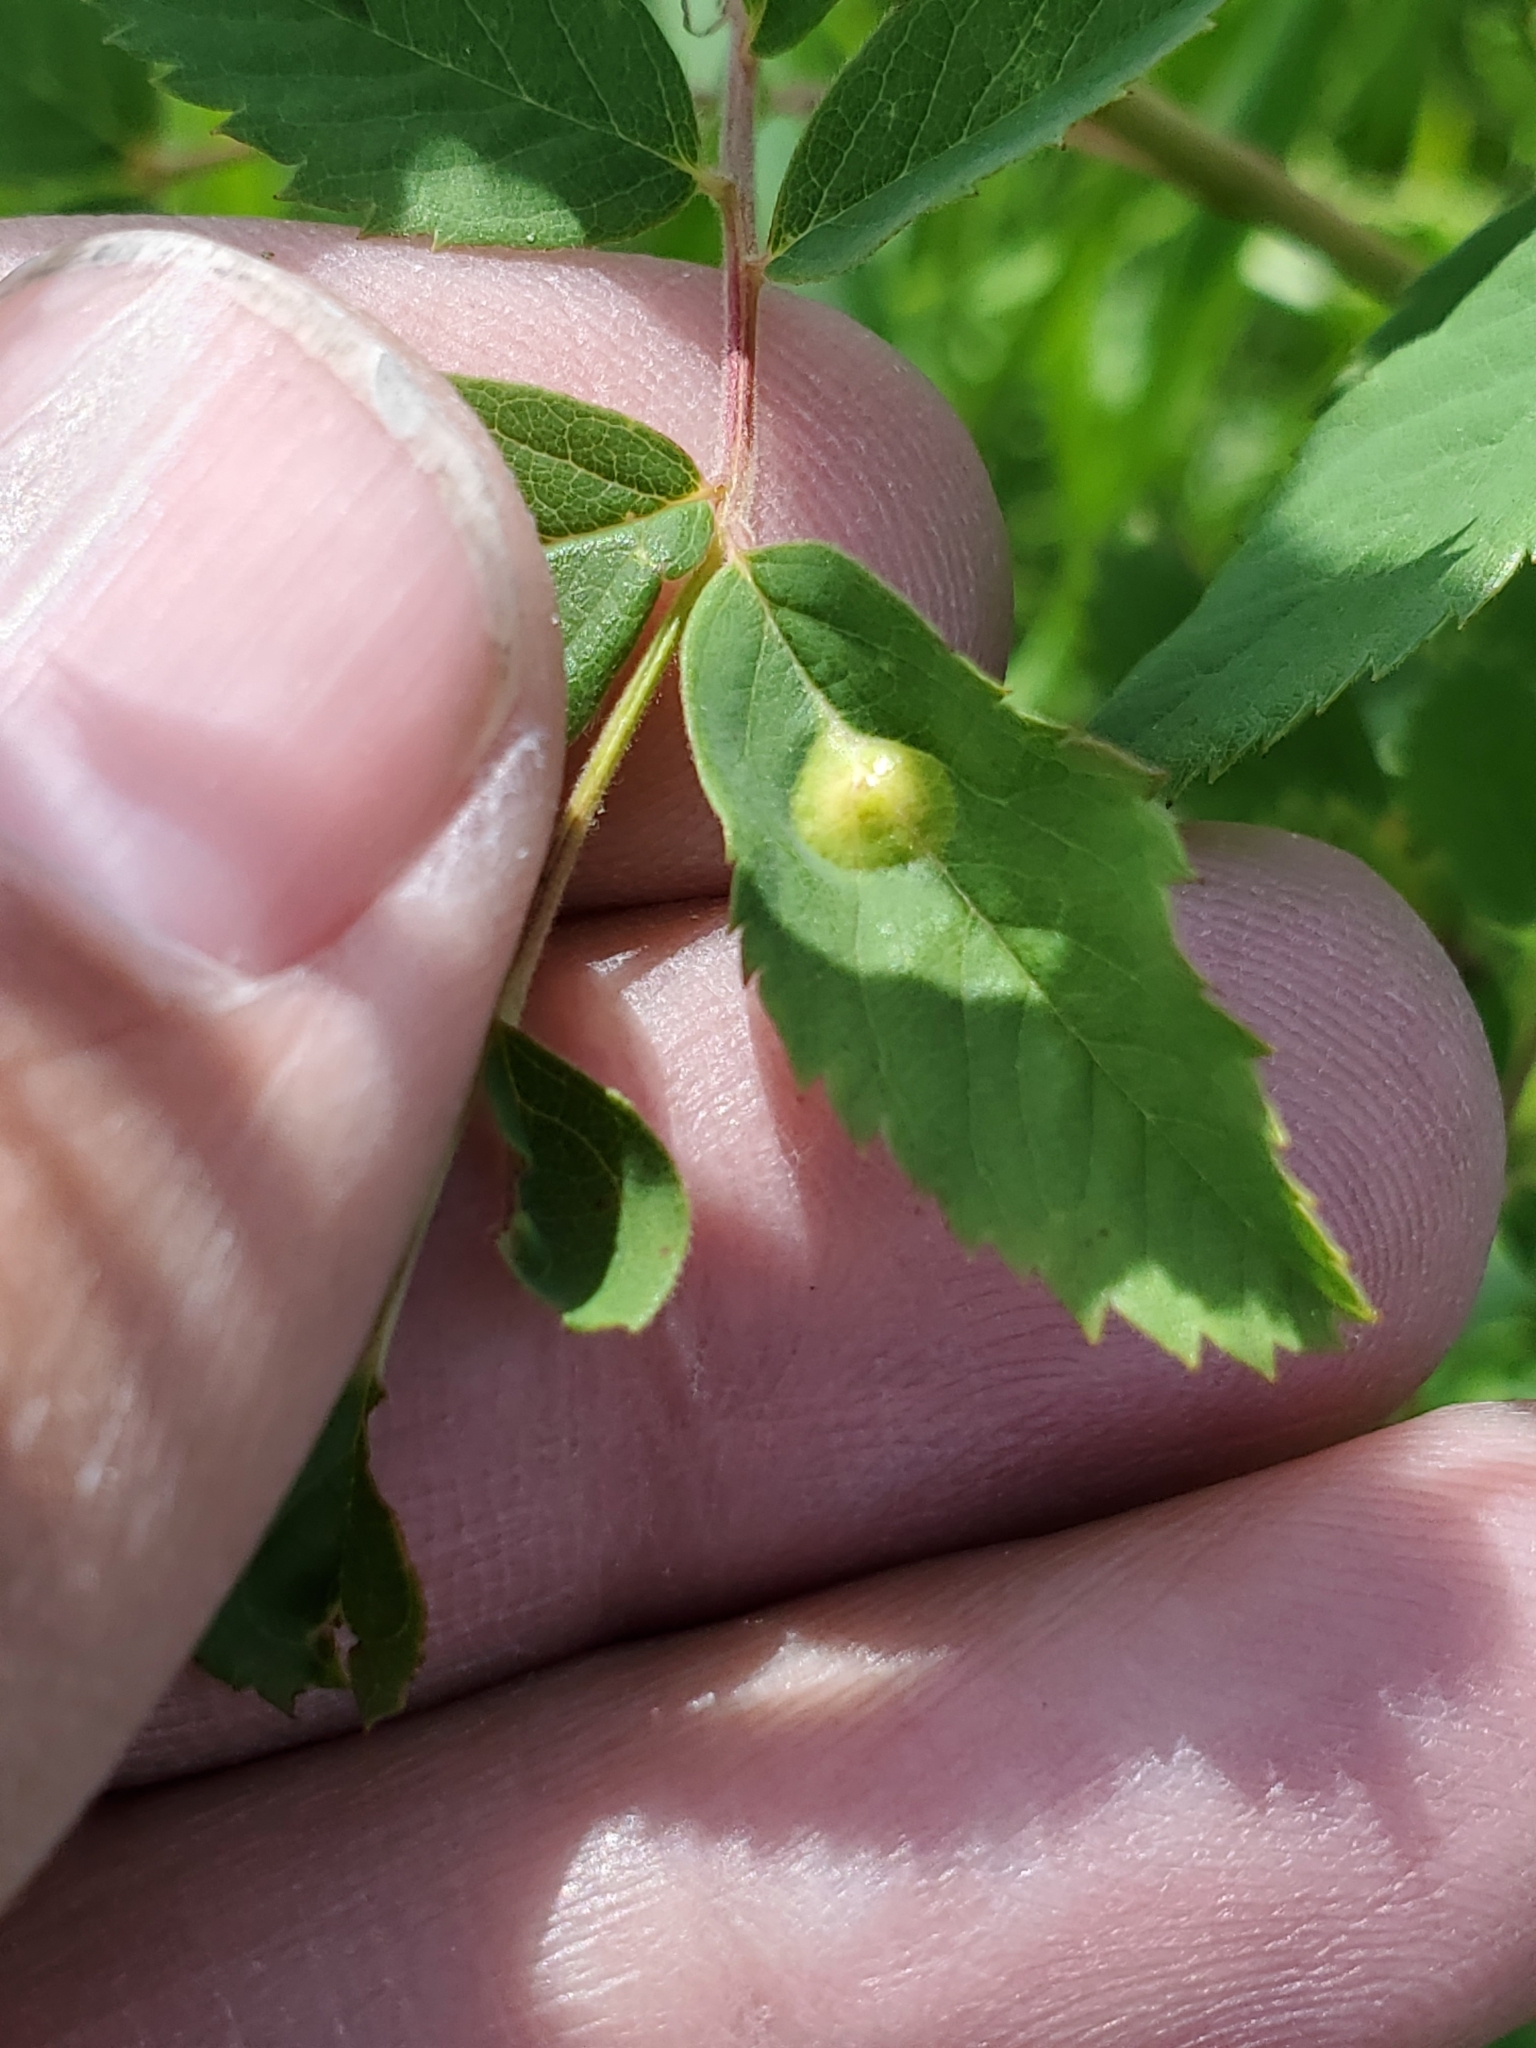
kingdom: Animalia
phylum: Arthropoda
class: Insecta
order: Hymenoptera
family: Cynipidae
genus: Diplolepis
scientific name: Diplolepis rosaefolii
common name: Blister-gall wasp
